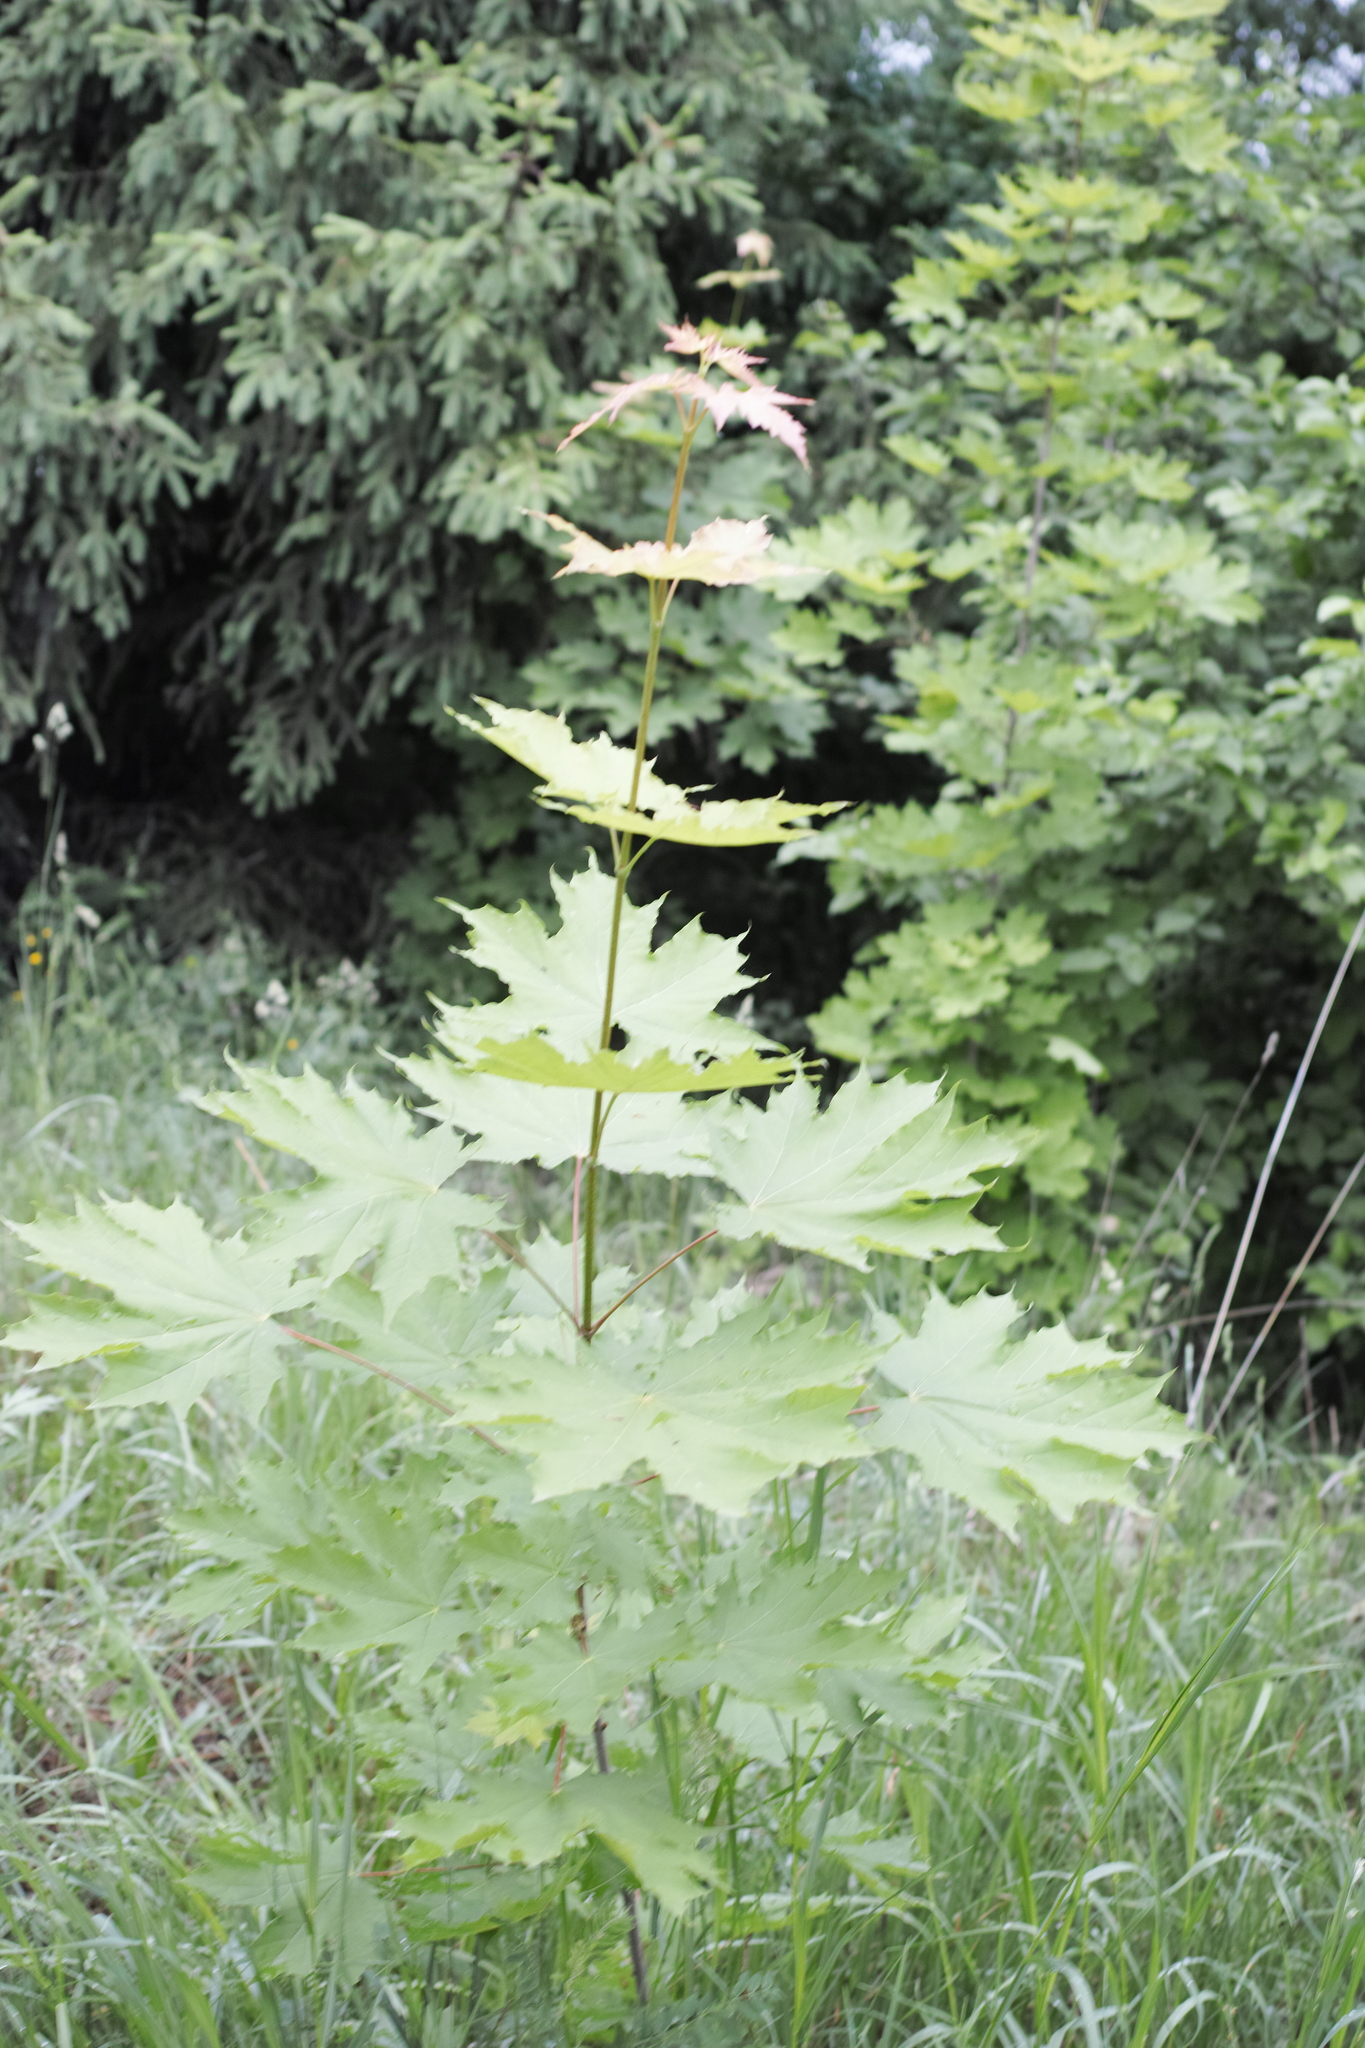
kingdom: Plantae
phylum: Tracheophyta
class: Magnoliopsida
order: Sapindales
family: Sapindaceae
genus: Acer
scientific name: Acer platanoides
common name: Norway maple
